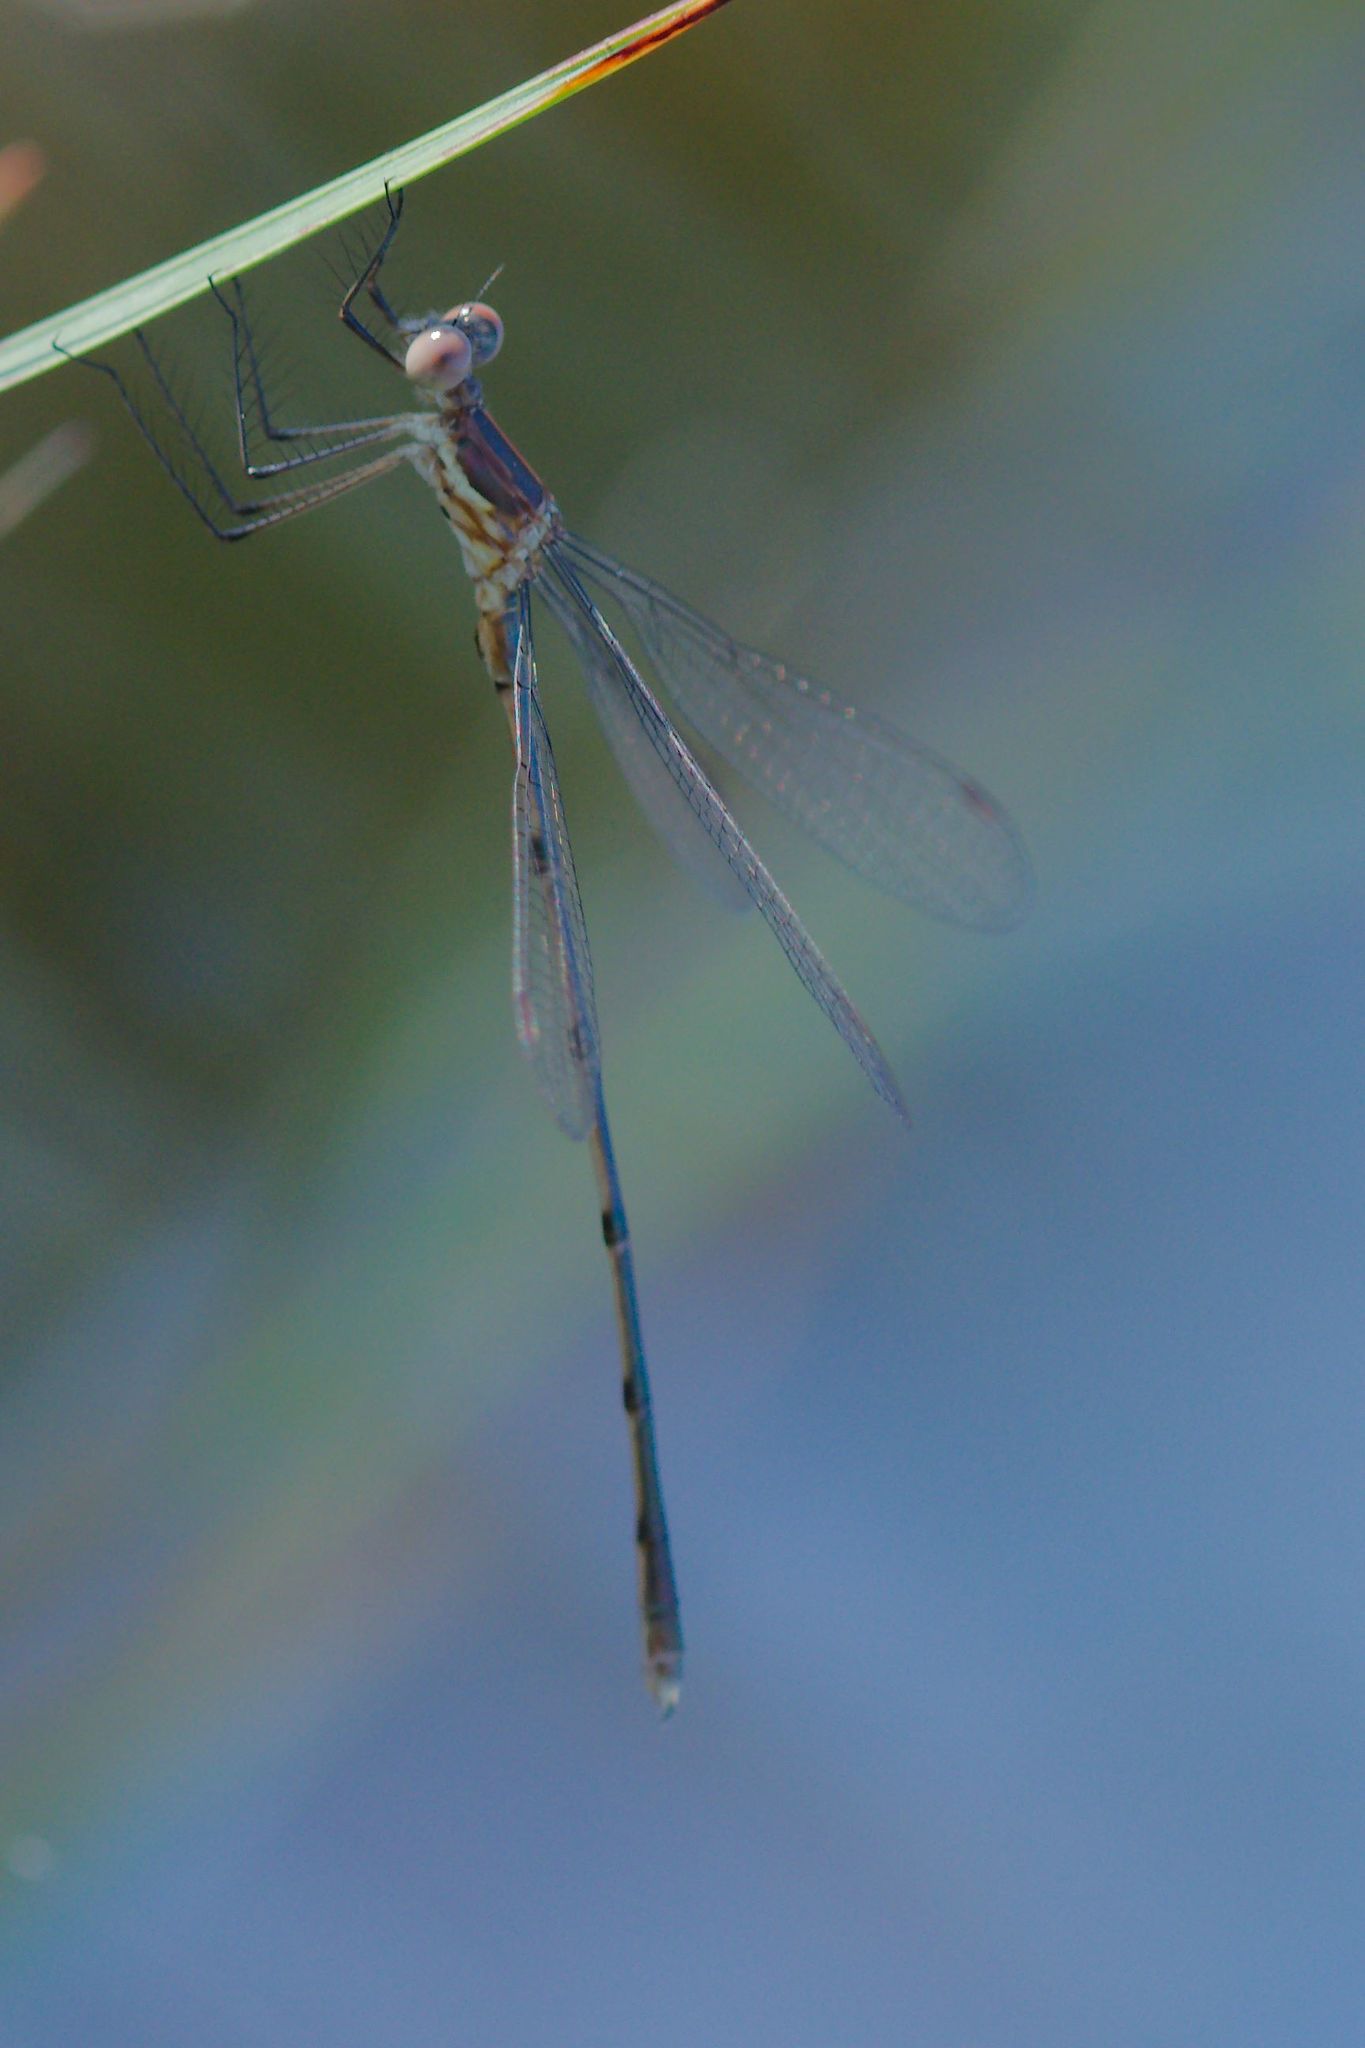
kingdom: Animalia
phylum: Arthropoda
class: Insecta
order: Odonata
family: Lestidae
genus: Lestes
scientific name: Lestes vidua
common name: Carolina spreadwing
